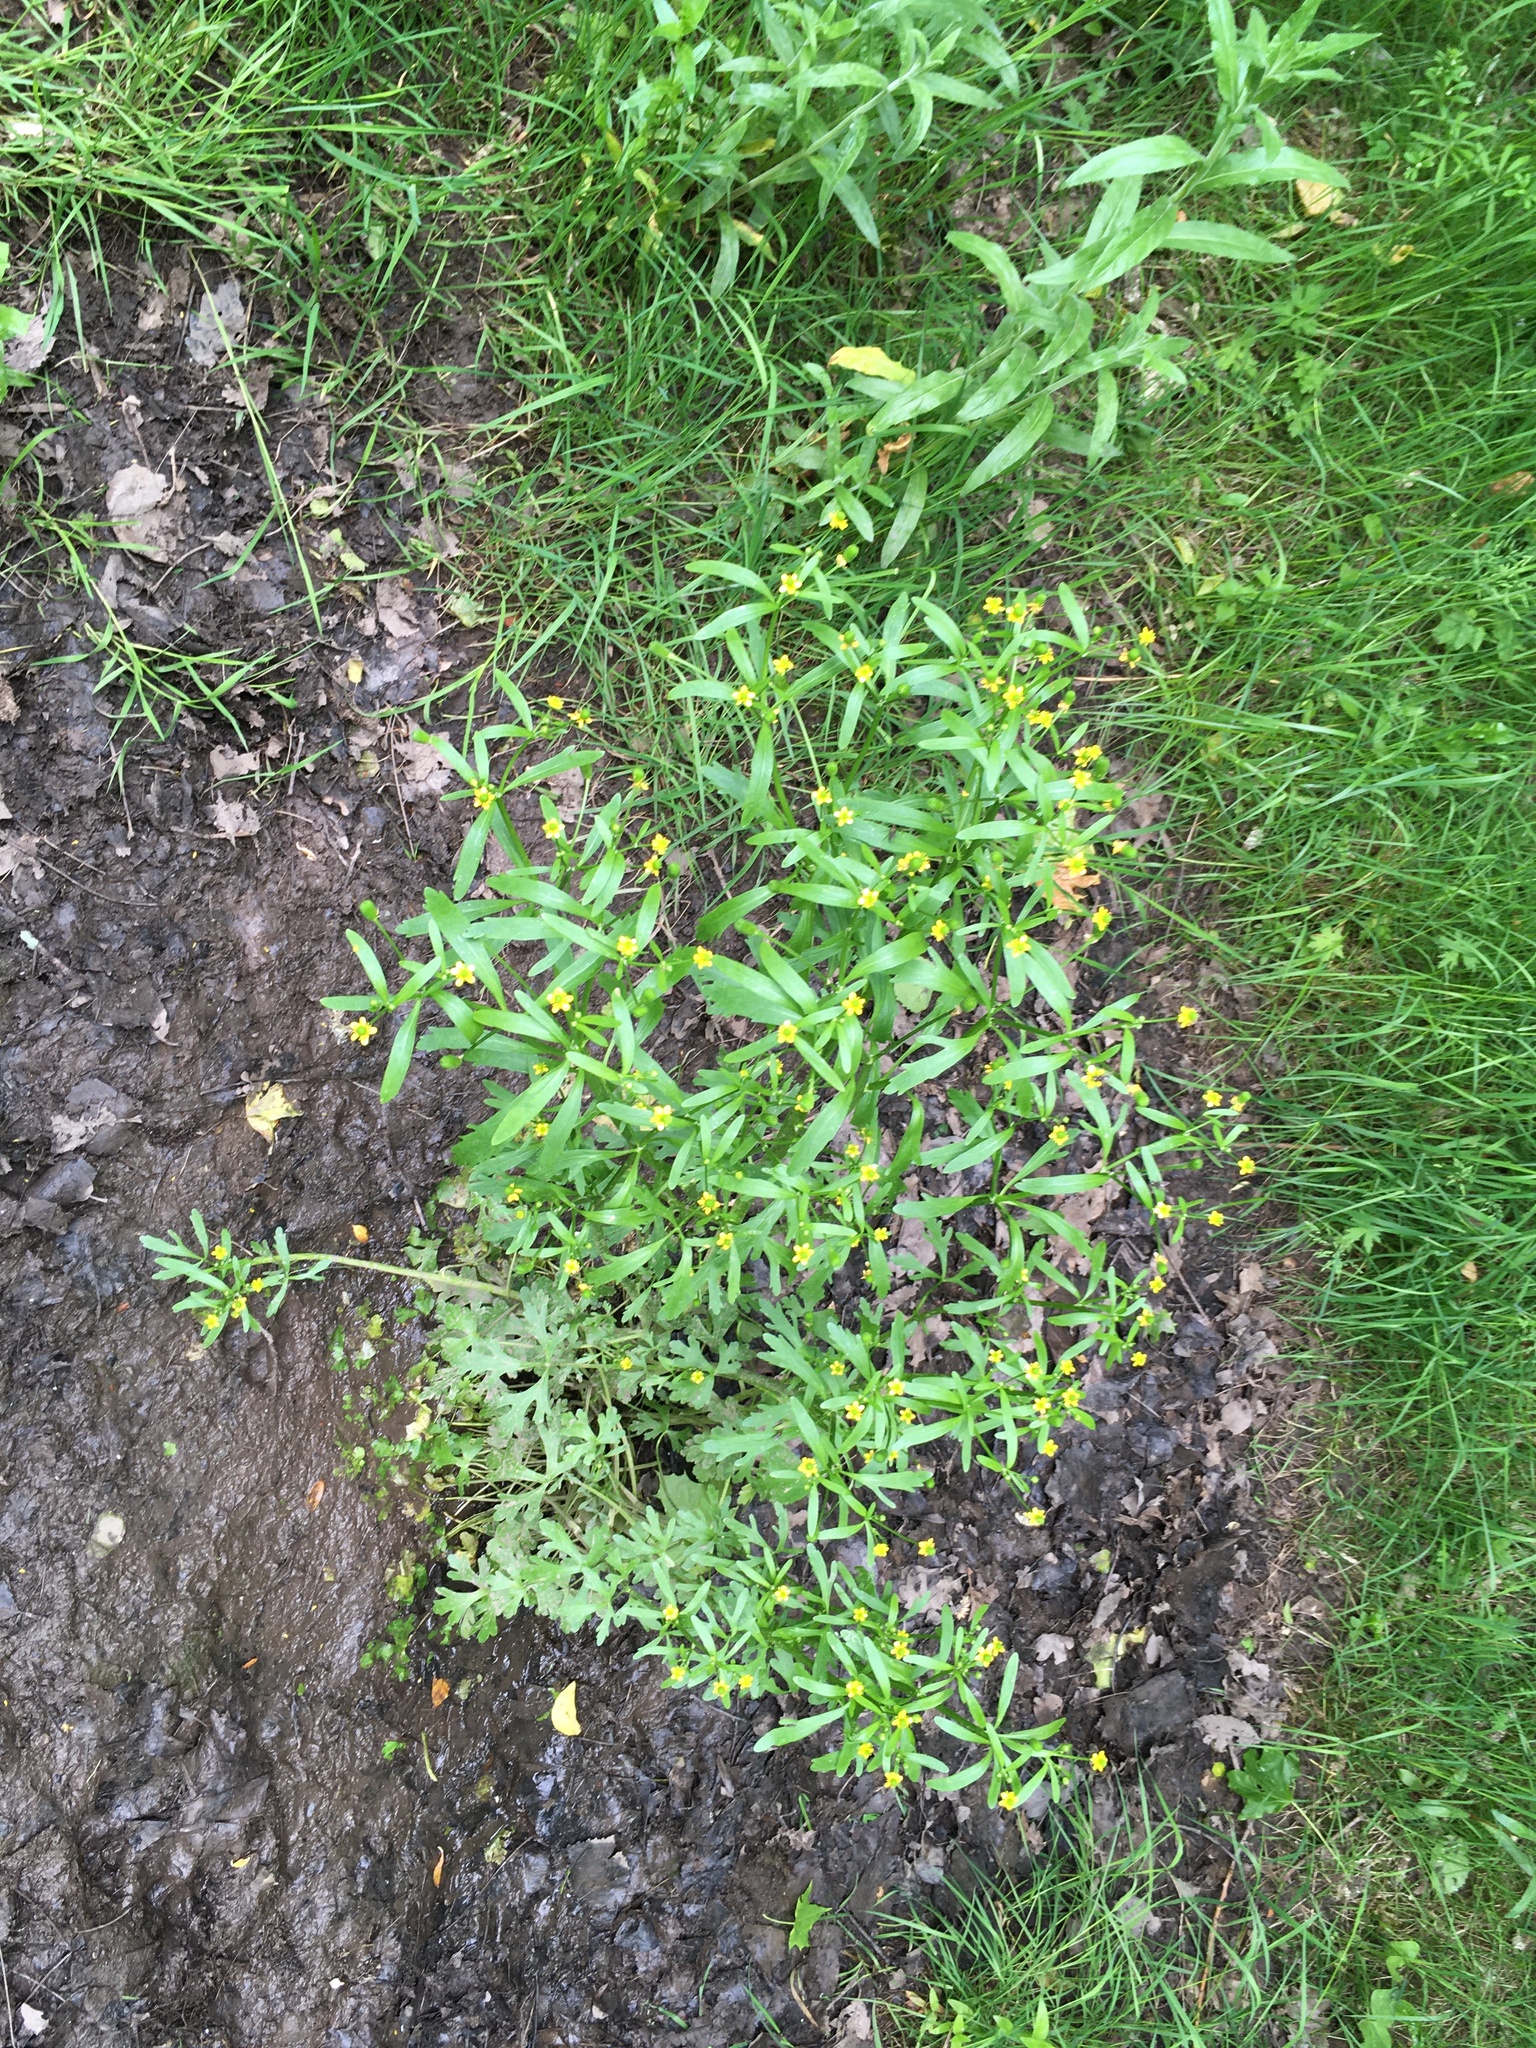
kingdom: Plantae
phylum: Tracheophyta
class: Magnoliopsida
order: Ranunculales
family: Ranunculaceae
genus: Ranunculus
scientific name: Ranunculus sceleratus
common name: Celery-leaved buttercup
